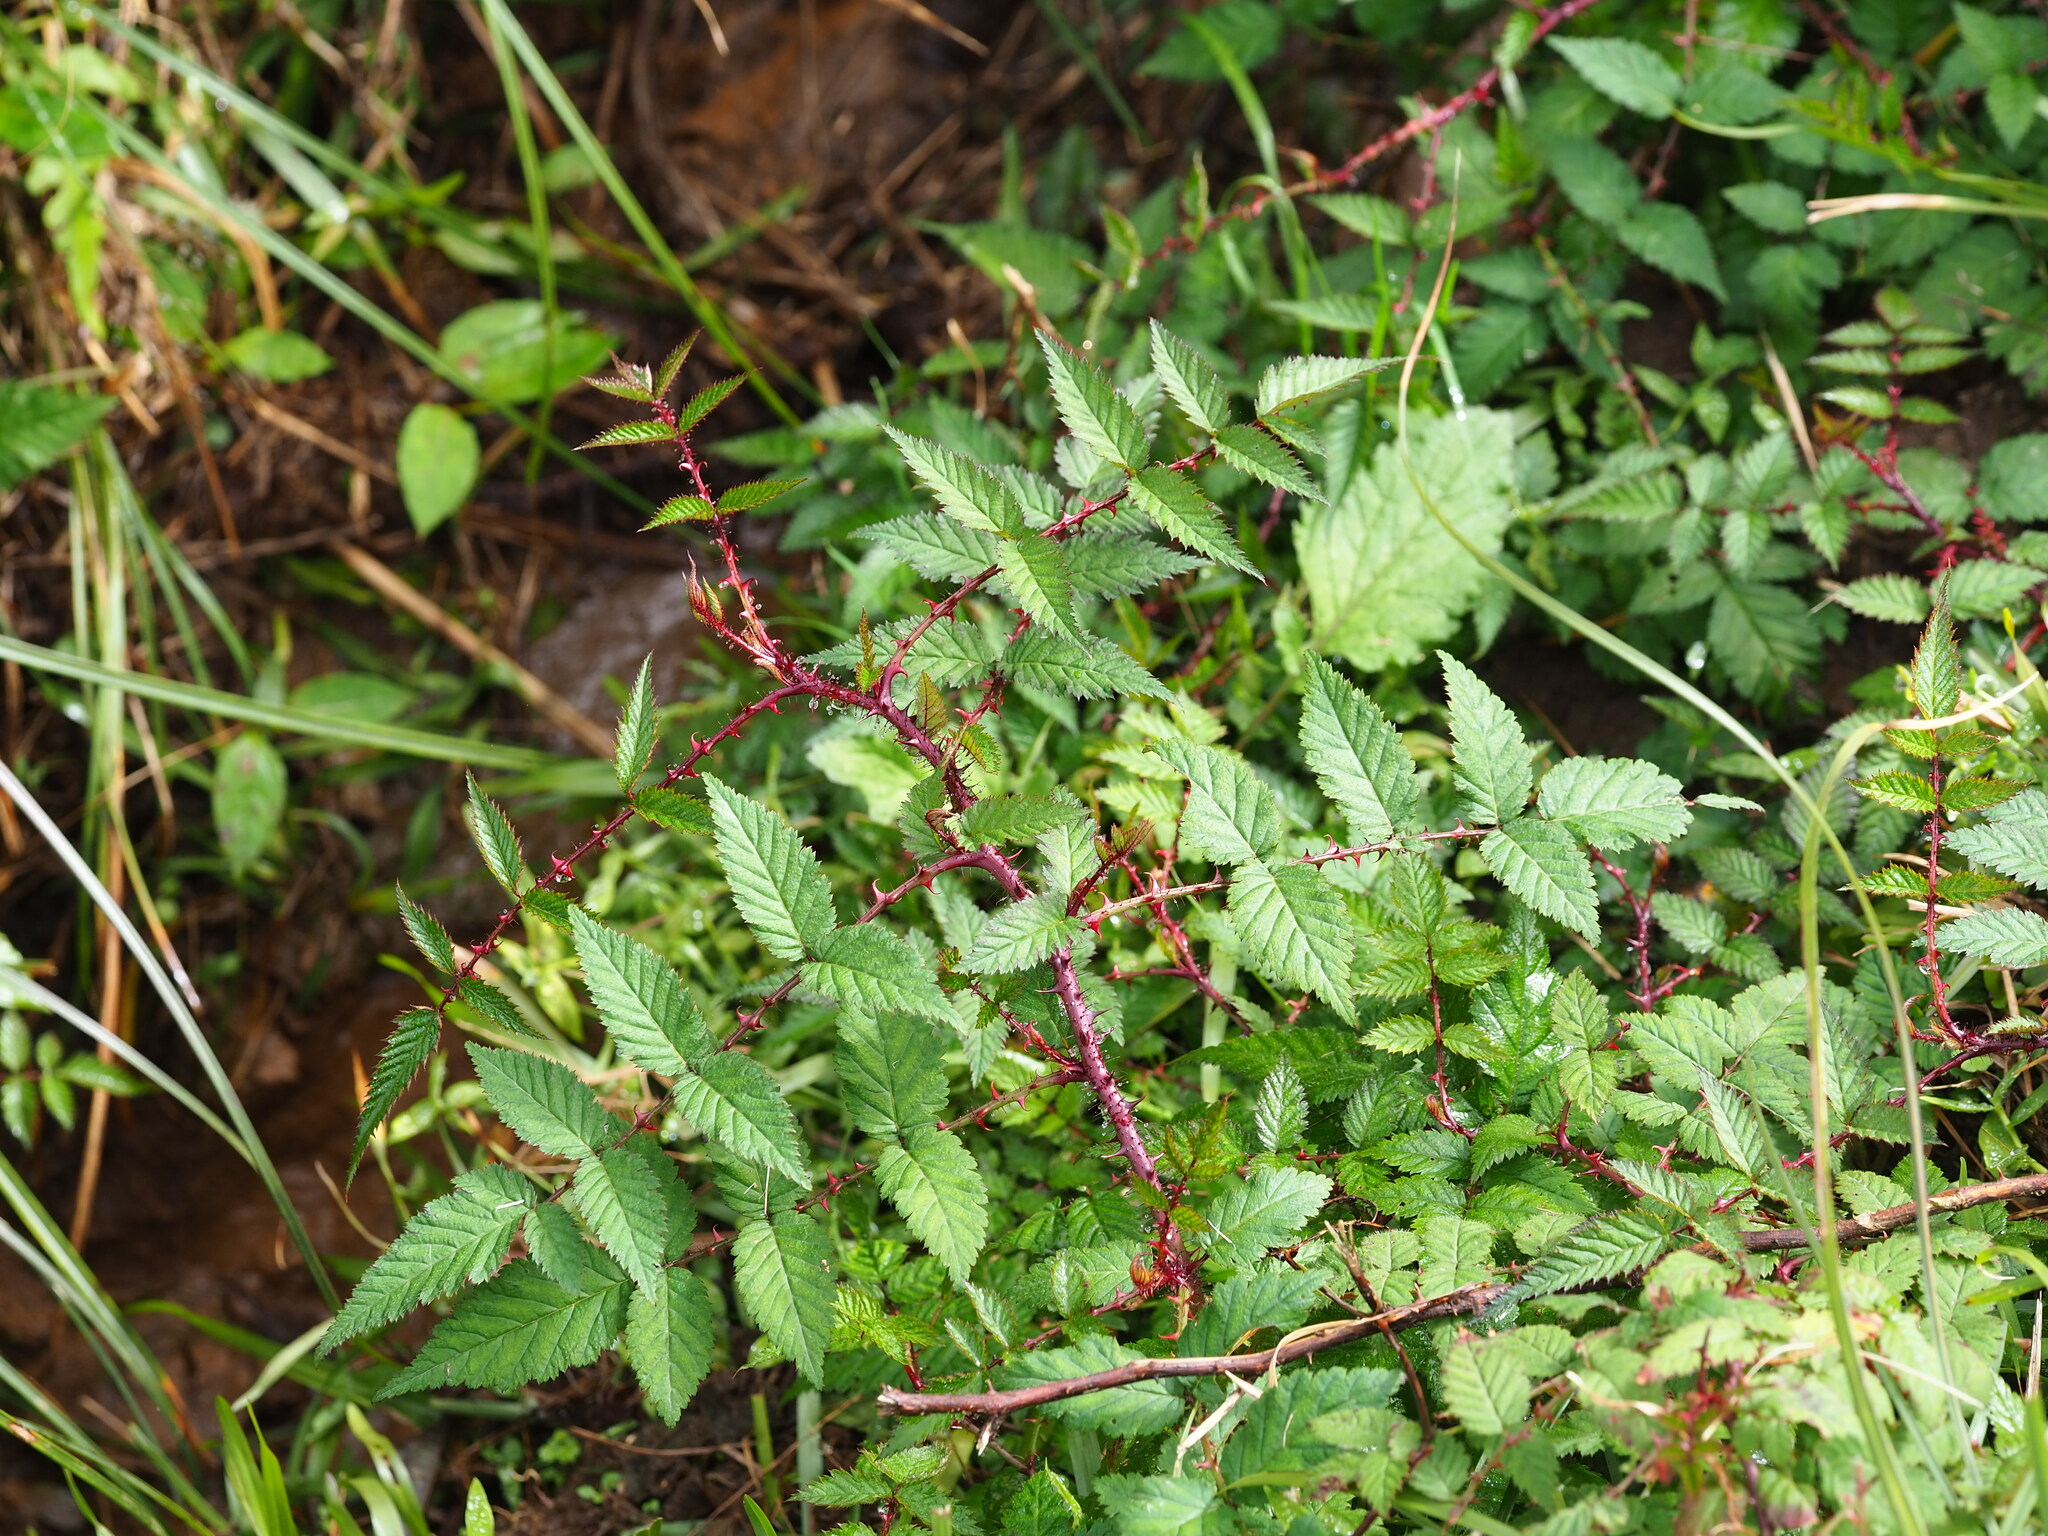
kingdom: Plantae
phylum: Tracheophyta
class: Magnoliopsida
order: Rosales
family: Rosaceae
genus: Rubus
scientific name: Rubus croceacanthus
